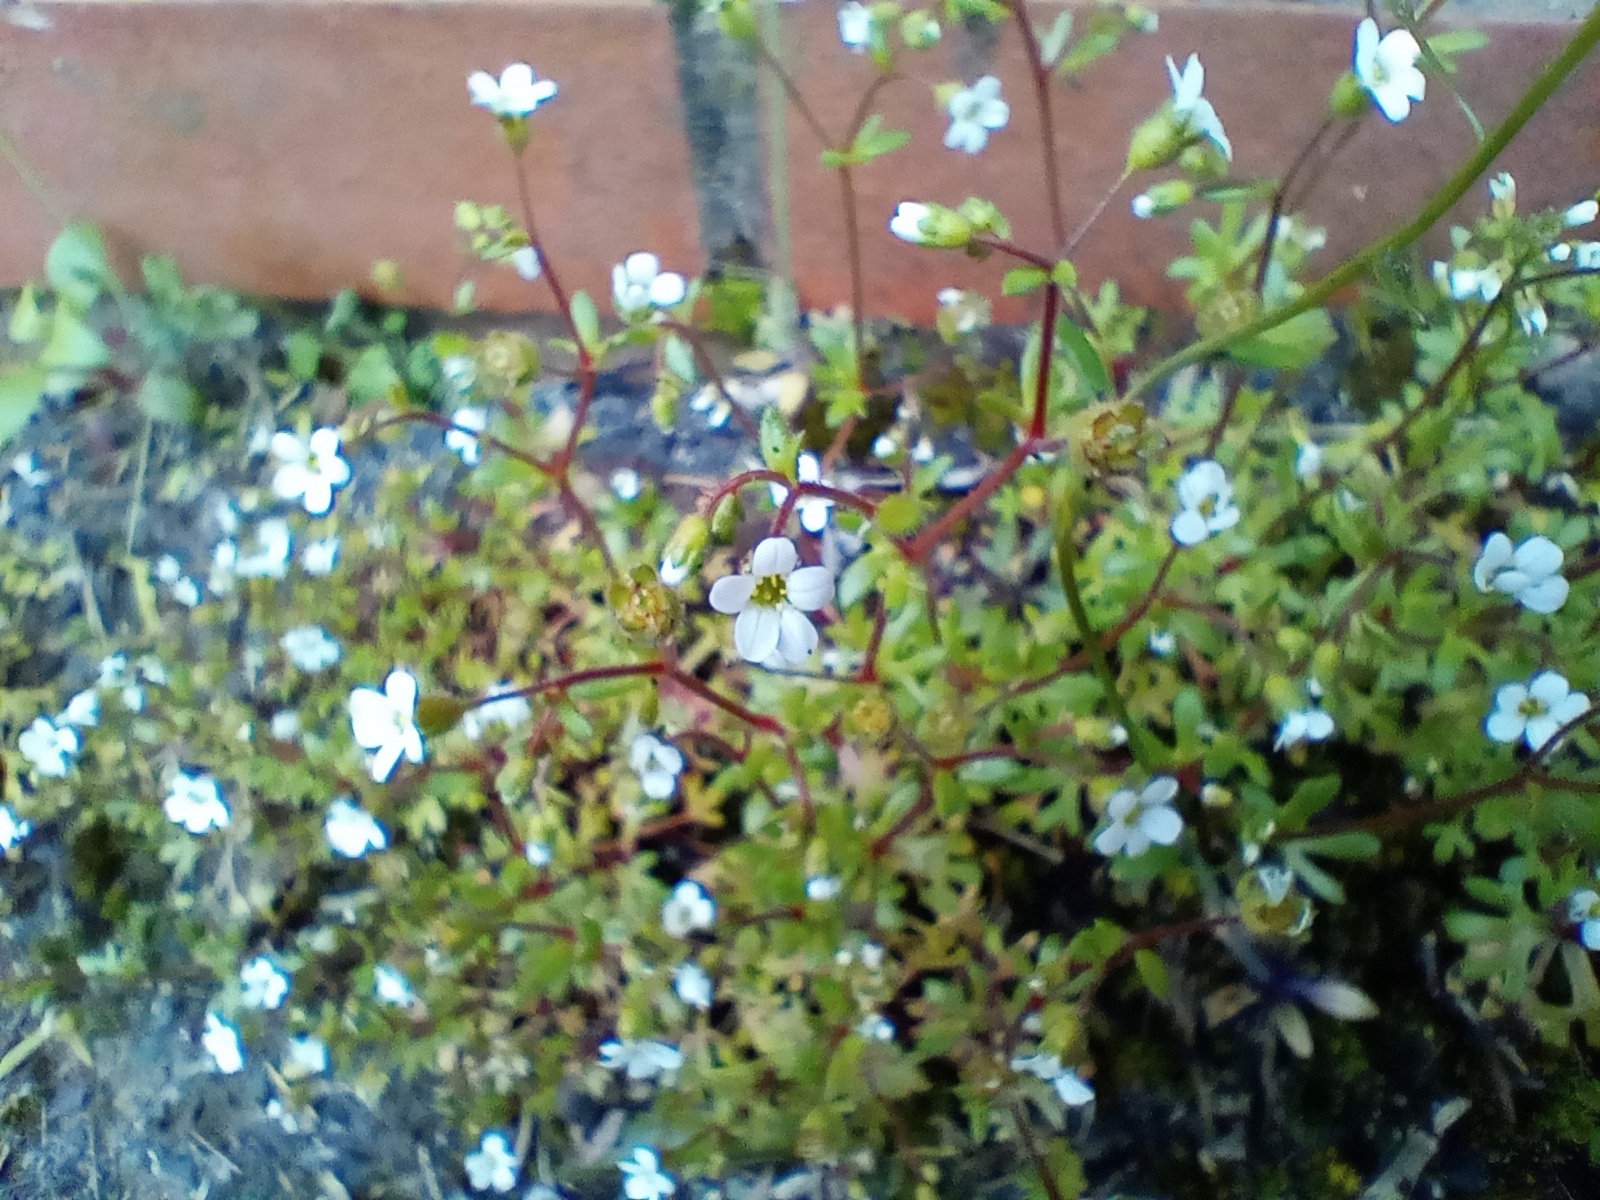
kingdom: Plantae
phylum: Tracheophyta
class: Magnoliopsida
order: Saxifragales
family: Saxifragaceae
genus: Saxifraga
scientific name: Saxifraga tridactylites
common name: Rue-leaved saxifrage
